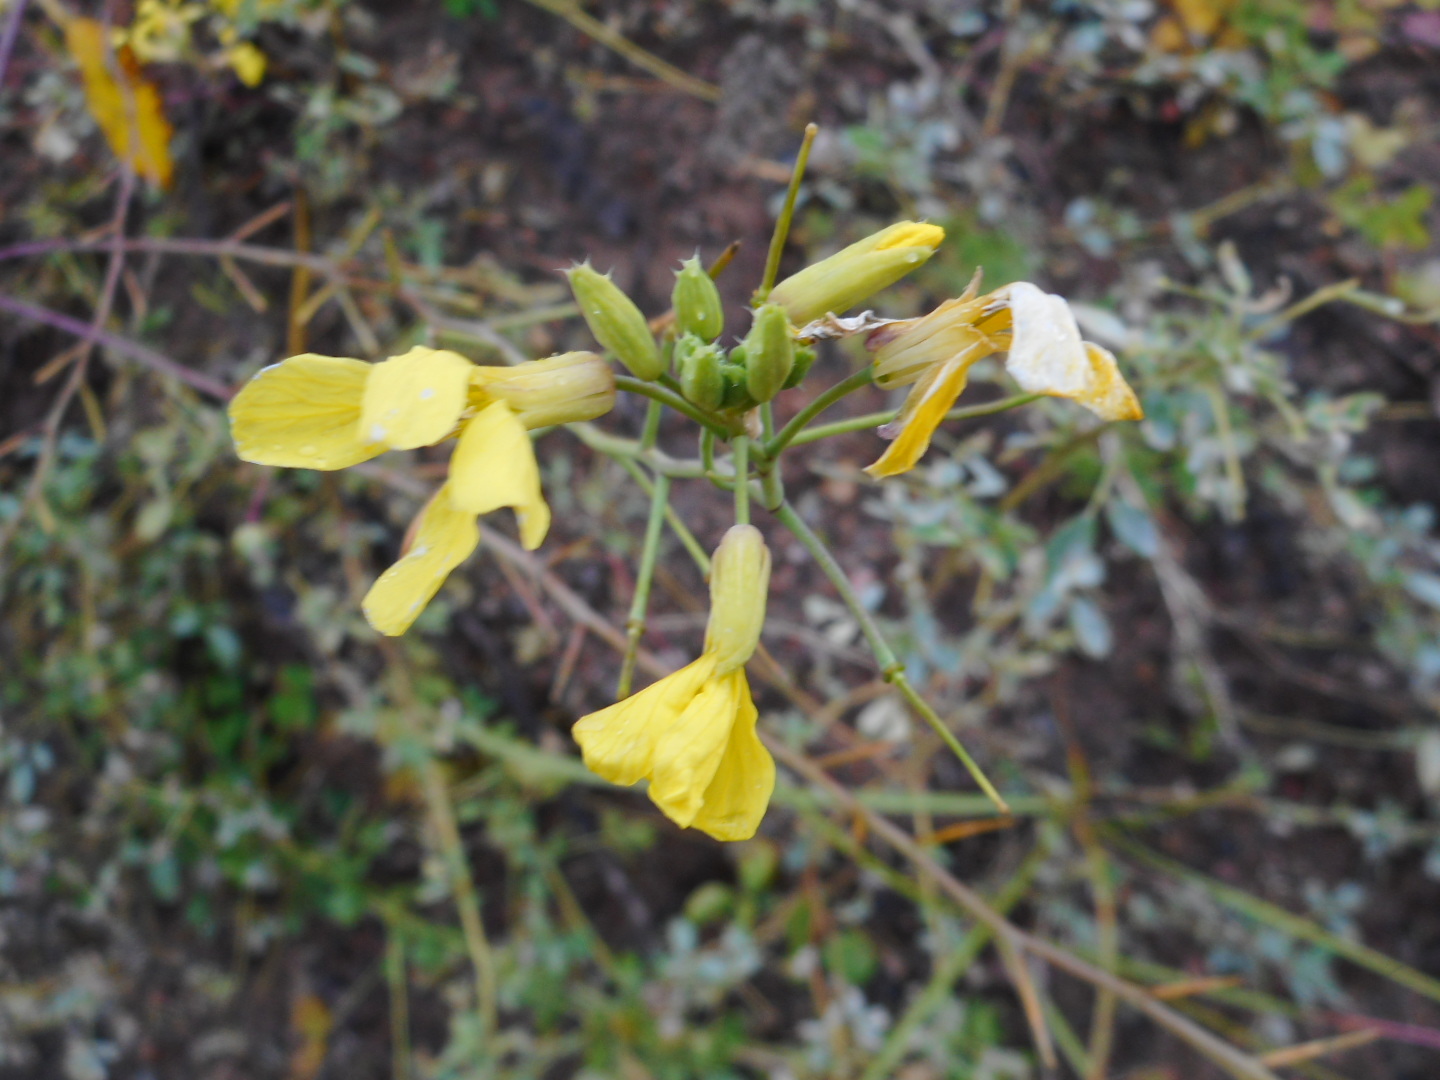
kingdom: Plantae
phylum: Tracheophyta
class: Magnoliopsida
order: Brassicales
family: Brassicaceae
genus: Raphanus
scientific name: Raphanus raphanistrum
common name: Wild radish
